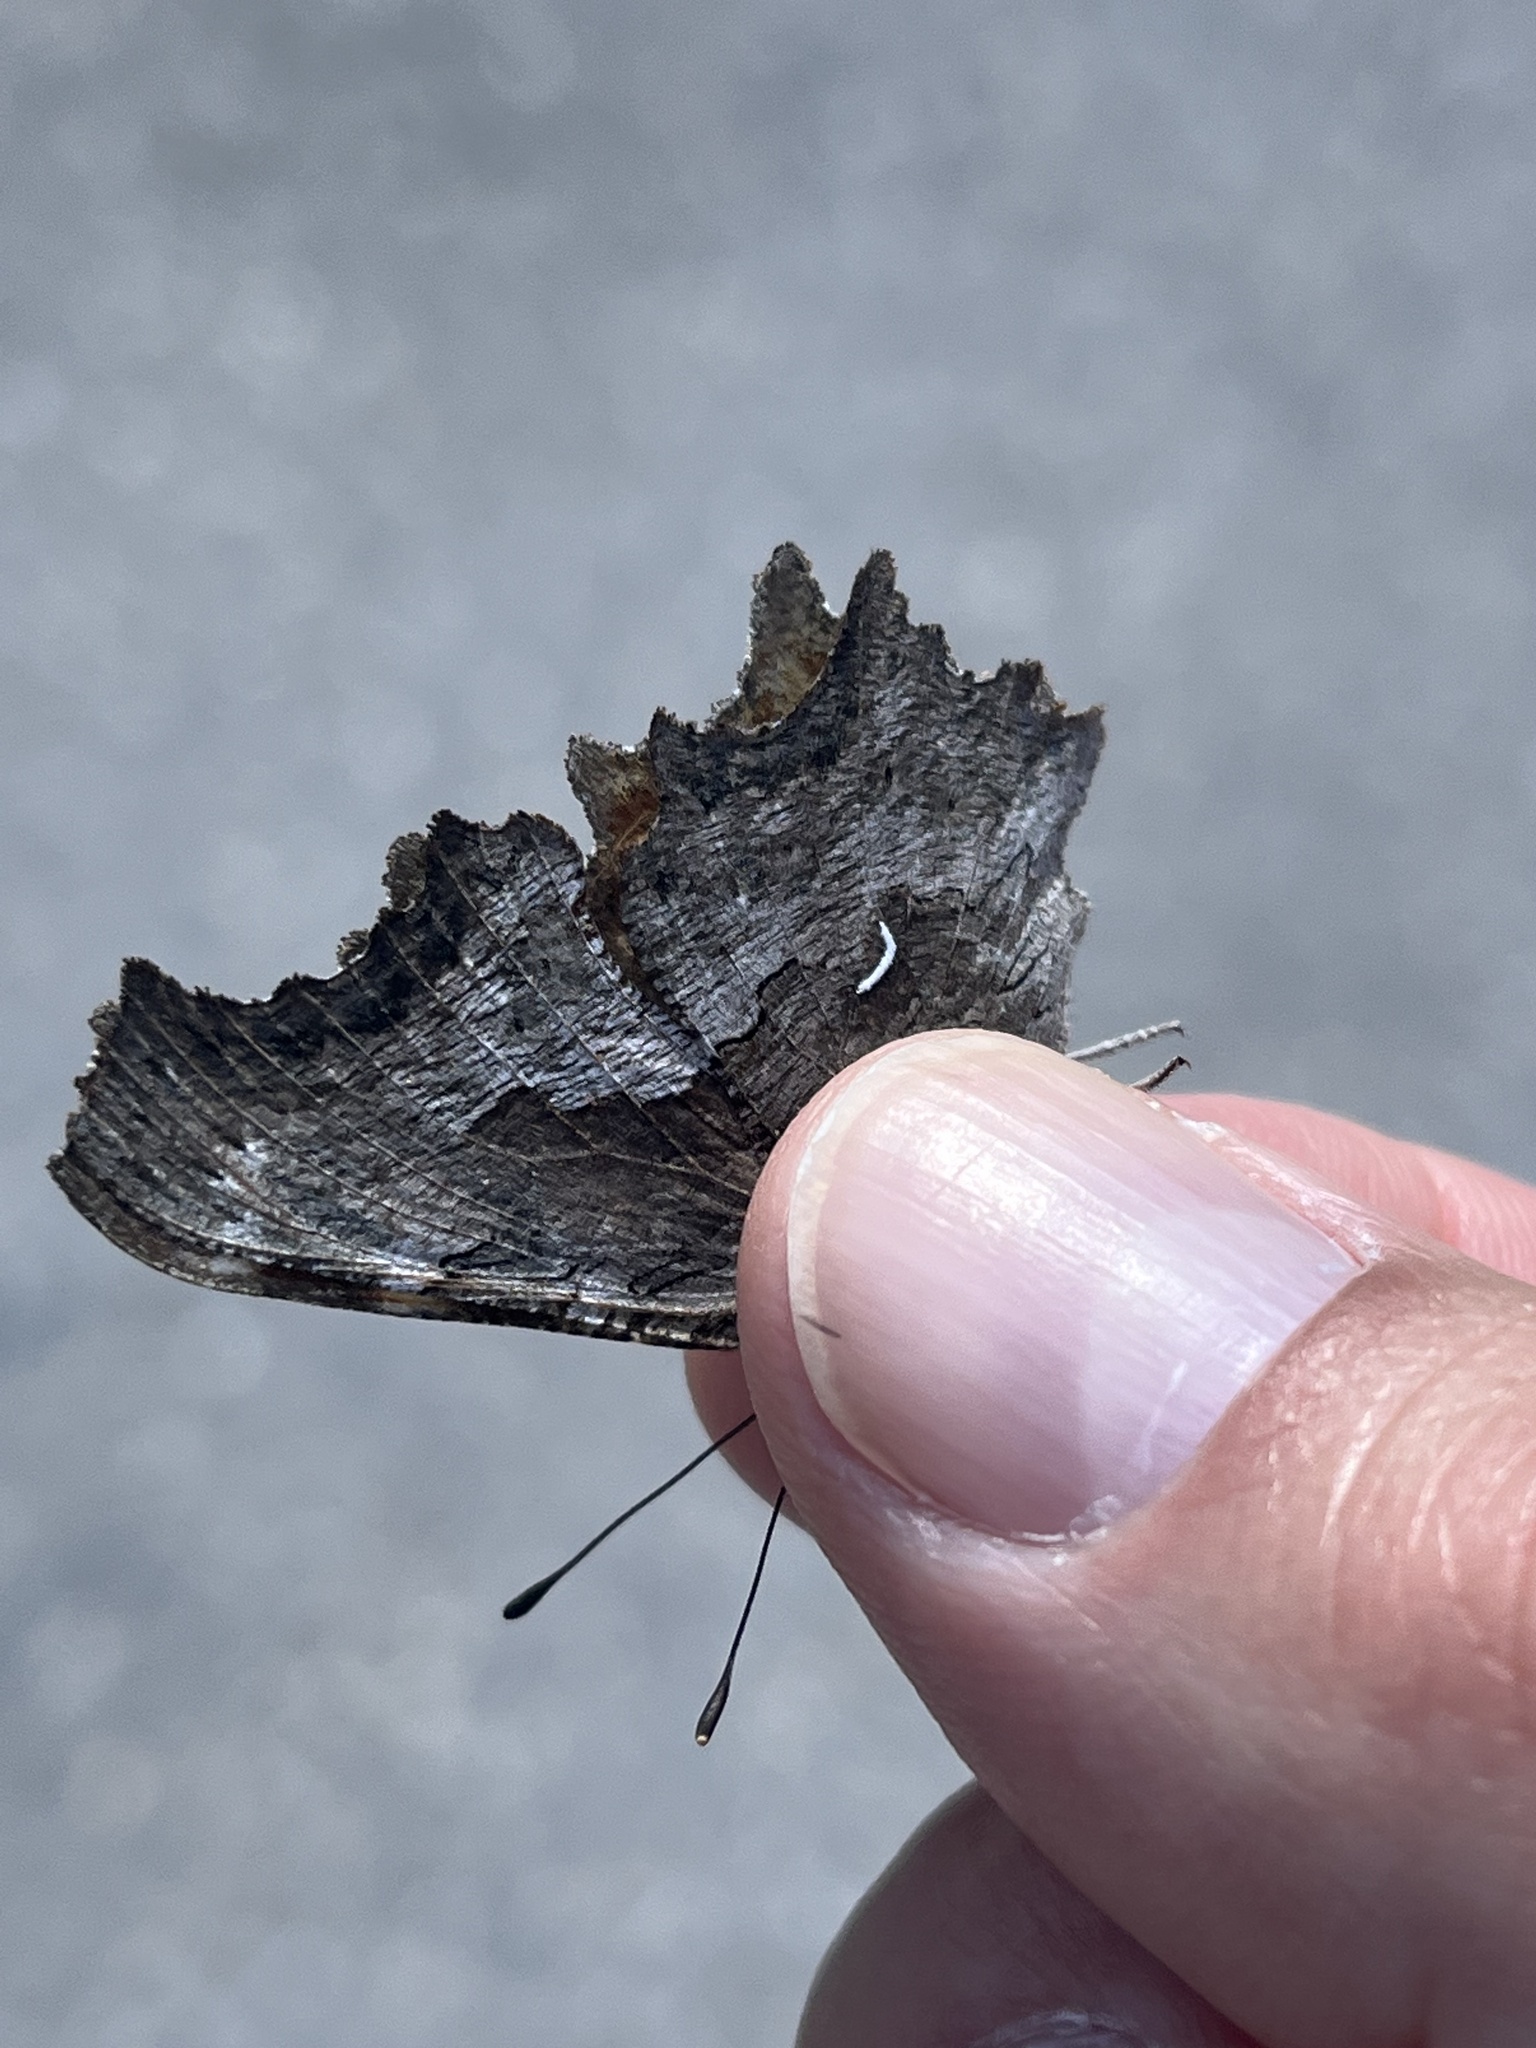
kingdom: Animalia
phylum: Arthropoda
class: Insecta
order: Lepidoptera
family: Nymphalidae
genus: Polygonia
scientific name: Polygonia gracilis
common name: Hoary comma
